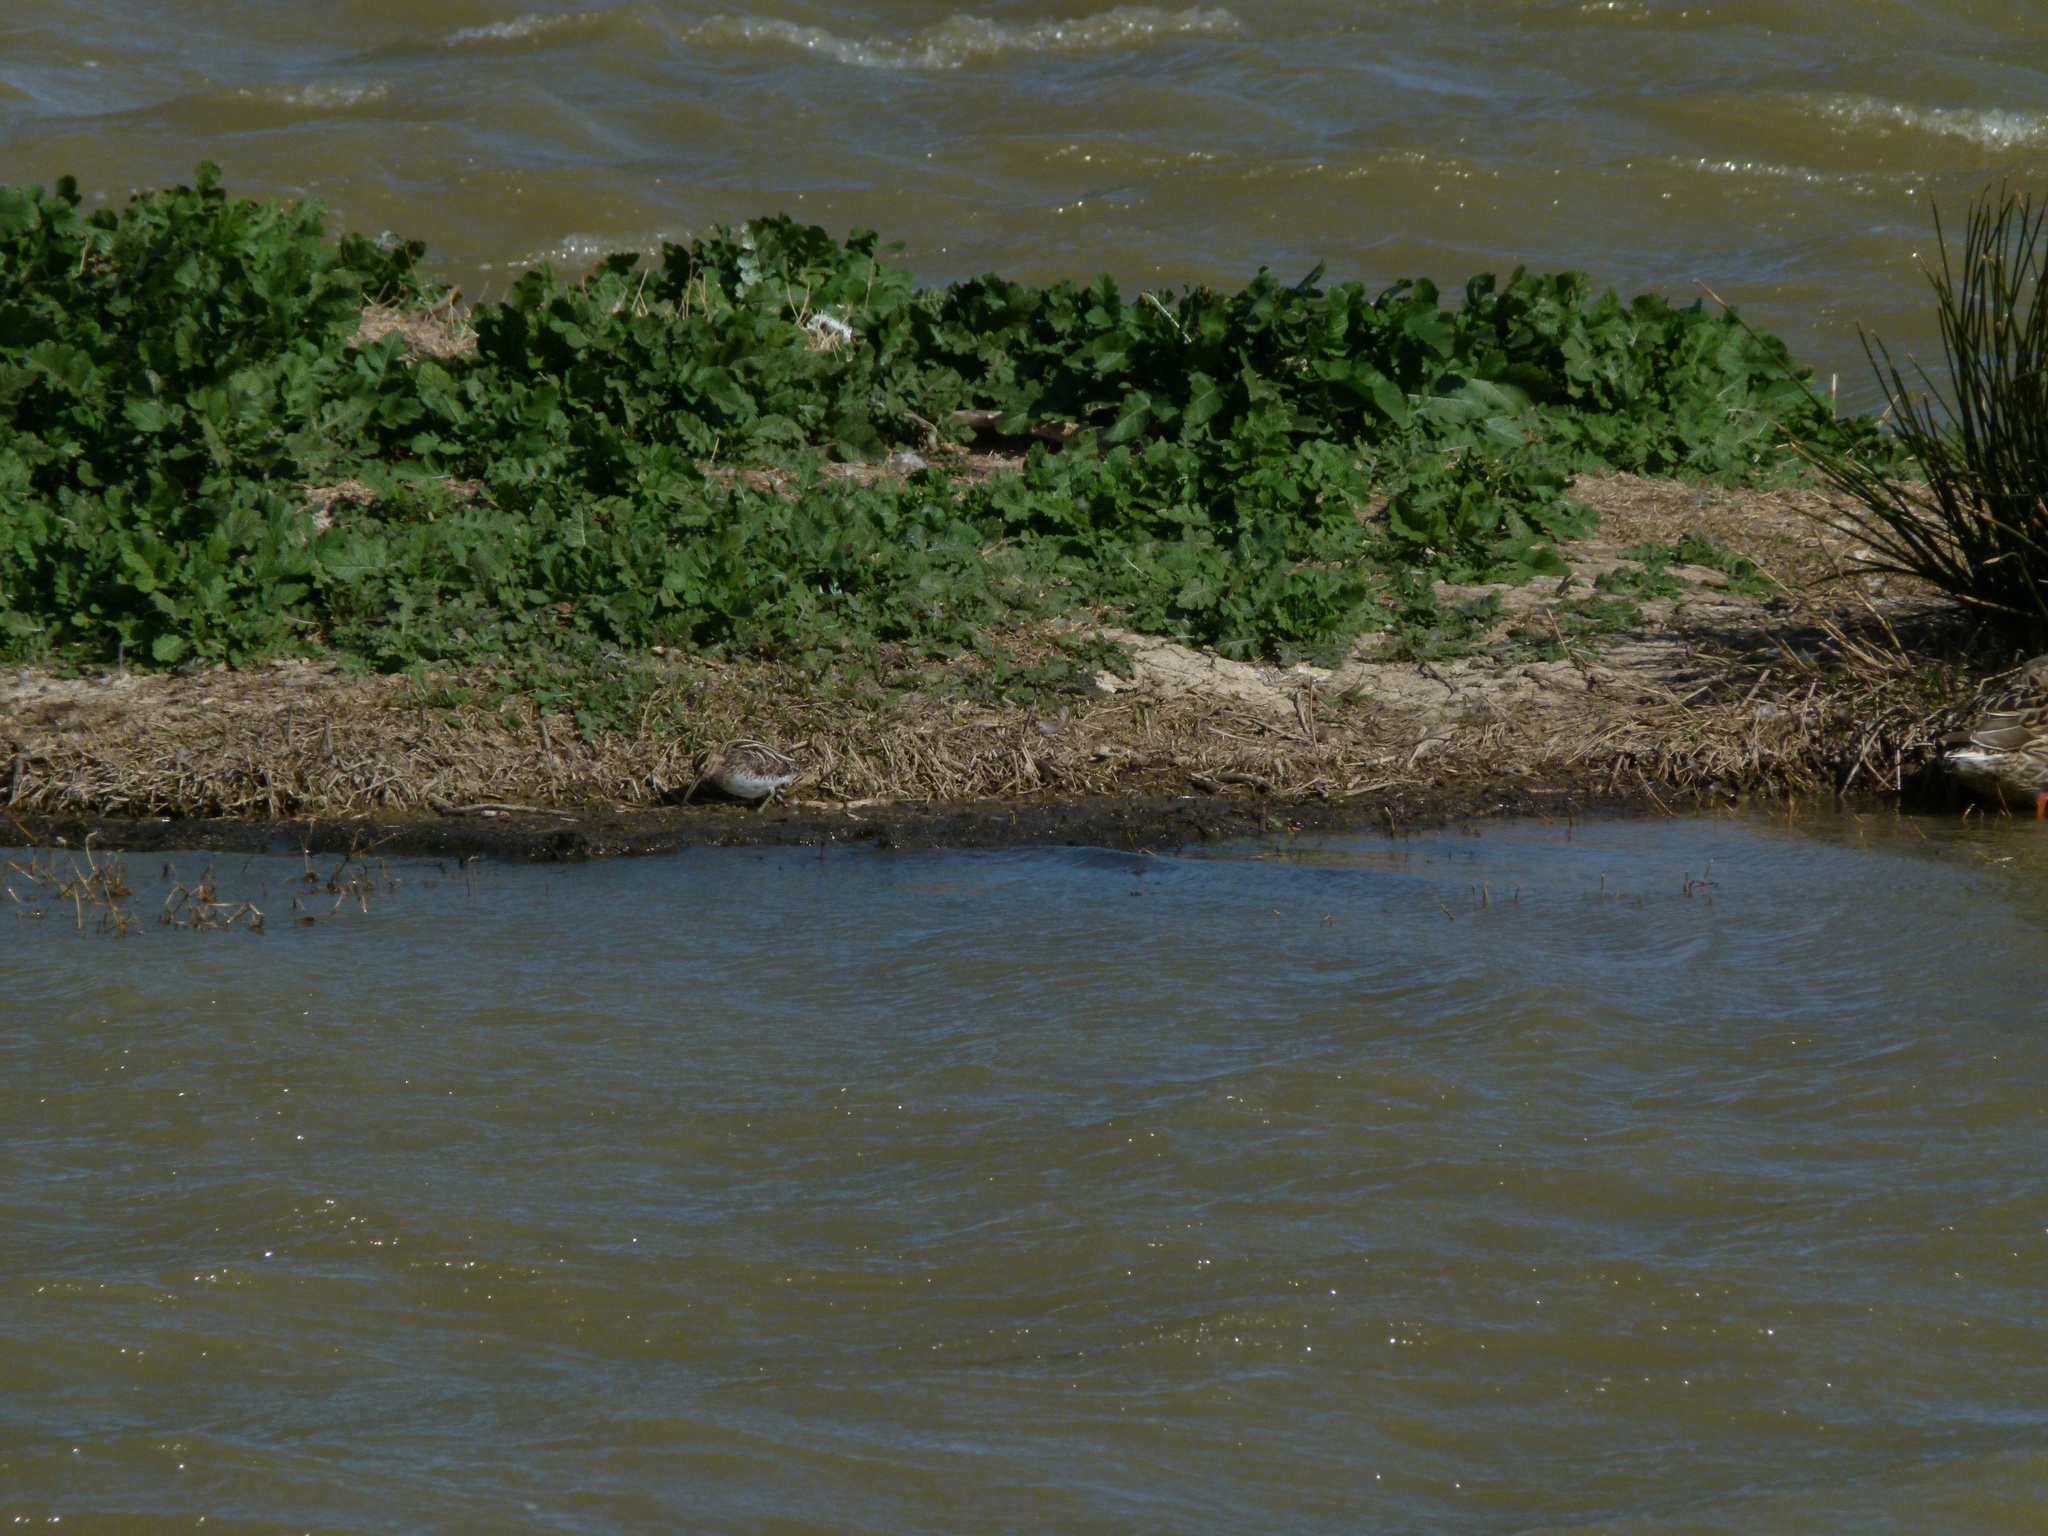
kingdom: Animalia
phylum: Chordata
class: Aves
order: Charadriiformes
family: Scolopacidae
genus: Gallinago
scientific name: Gallinago gallinago
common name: Common snipe
